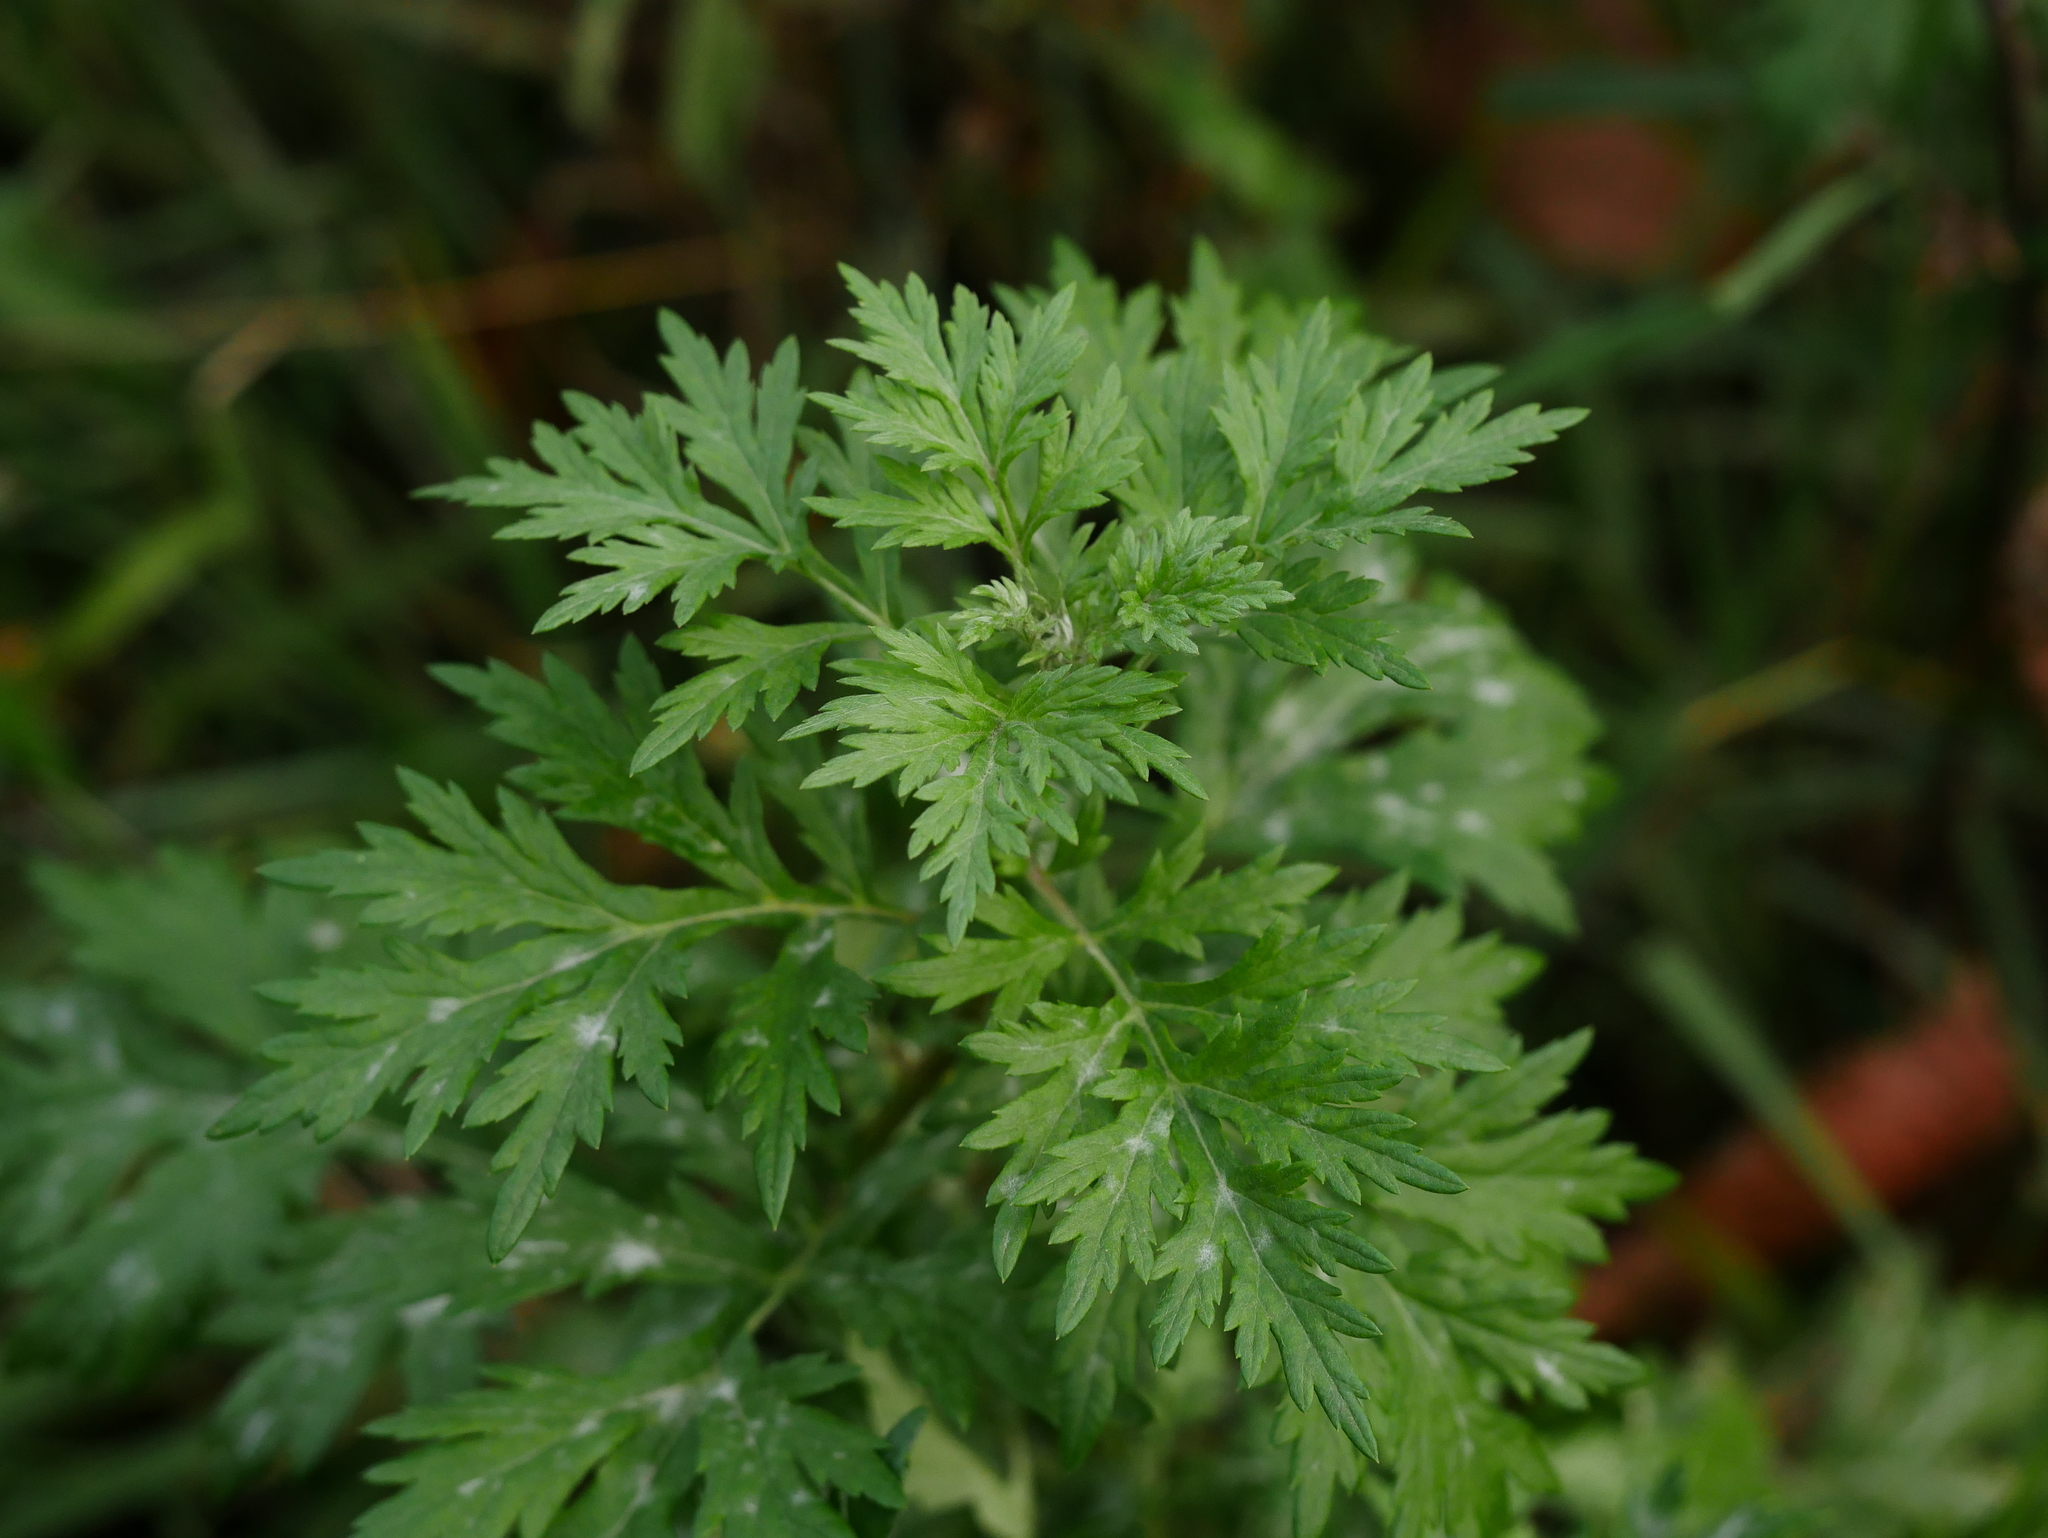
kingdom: Plantae
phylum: Tracheophyta
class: Magnoliopsida
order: Asterales
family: Asteraceae
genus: Artemisia
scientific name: Artemisia vulgaris
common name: Mugwort
